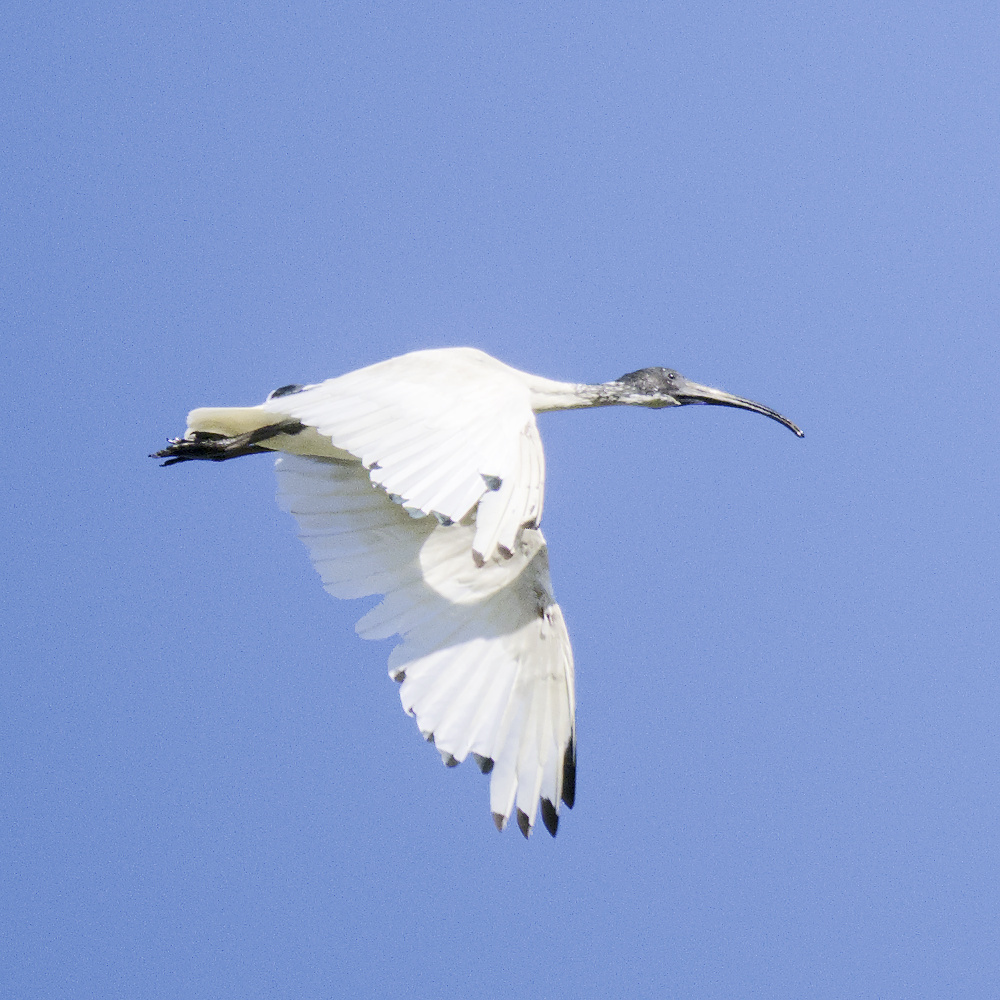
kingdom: Animalia
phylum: Chordata
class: Aves
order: Pelecaniformes
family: Threskiornithidae
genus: Threskiornis
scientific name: Threskiornis molucca
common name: Australian white ibis
